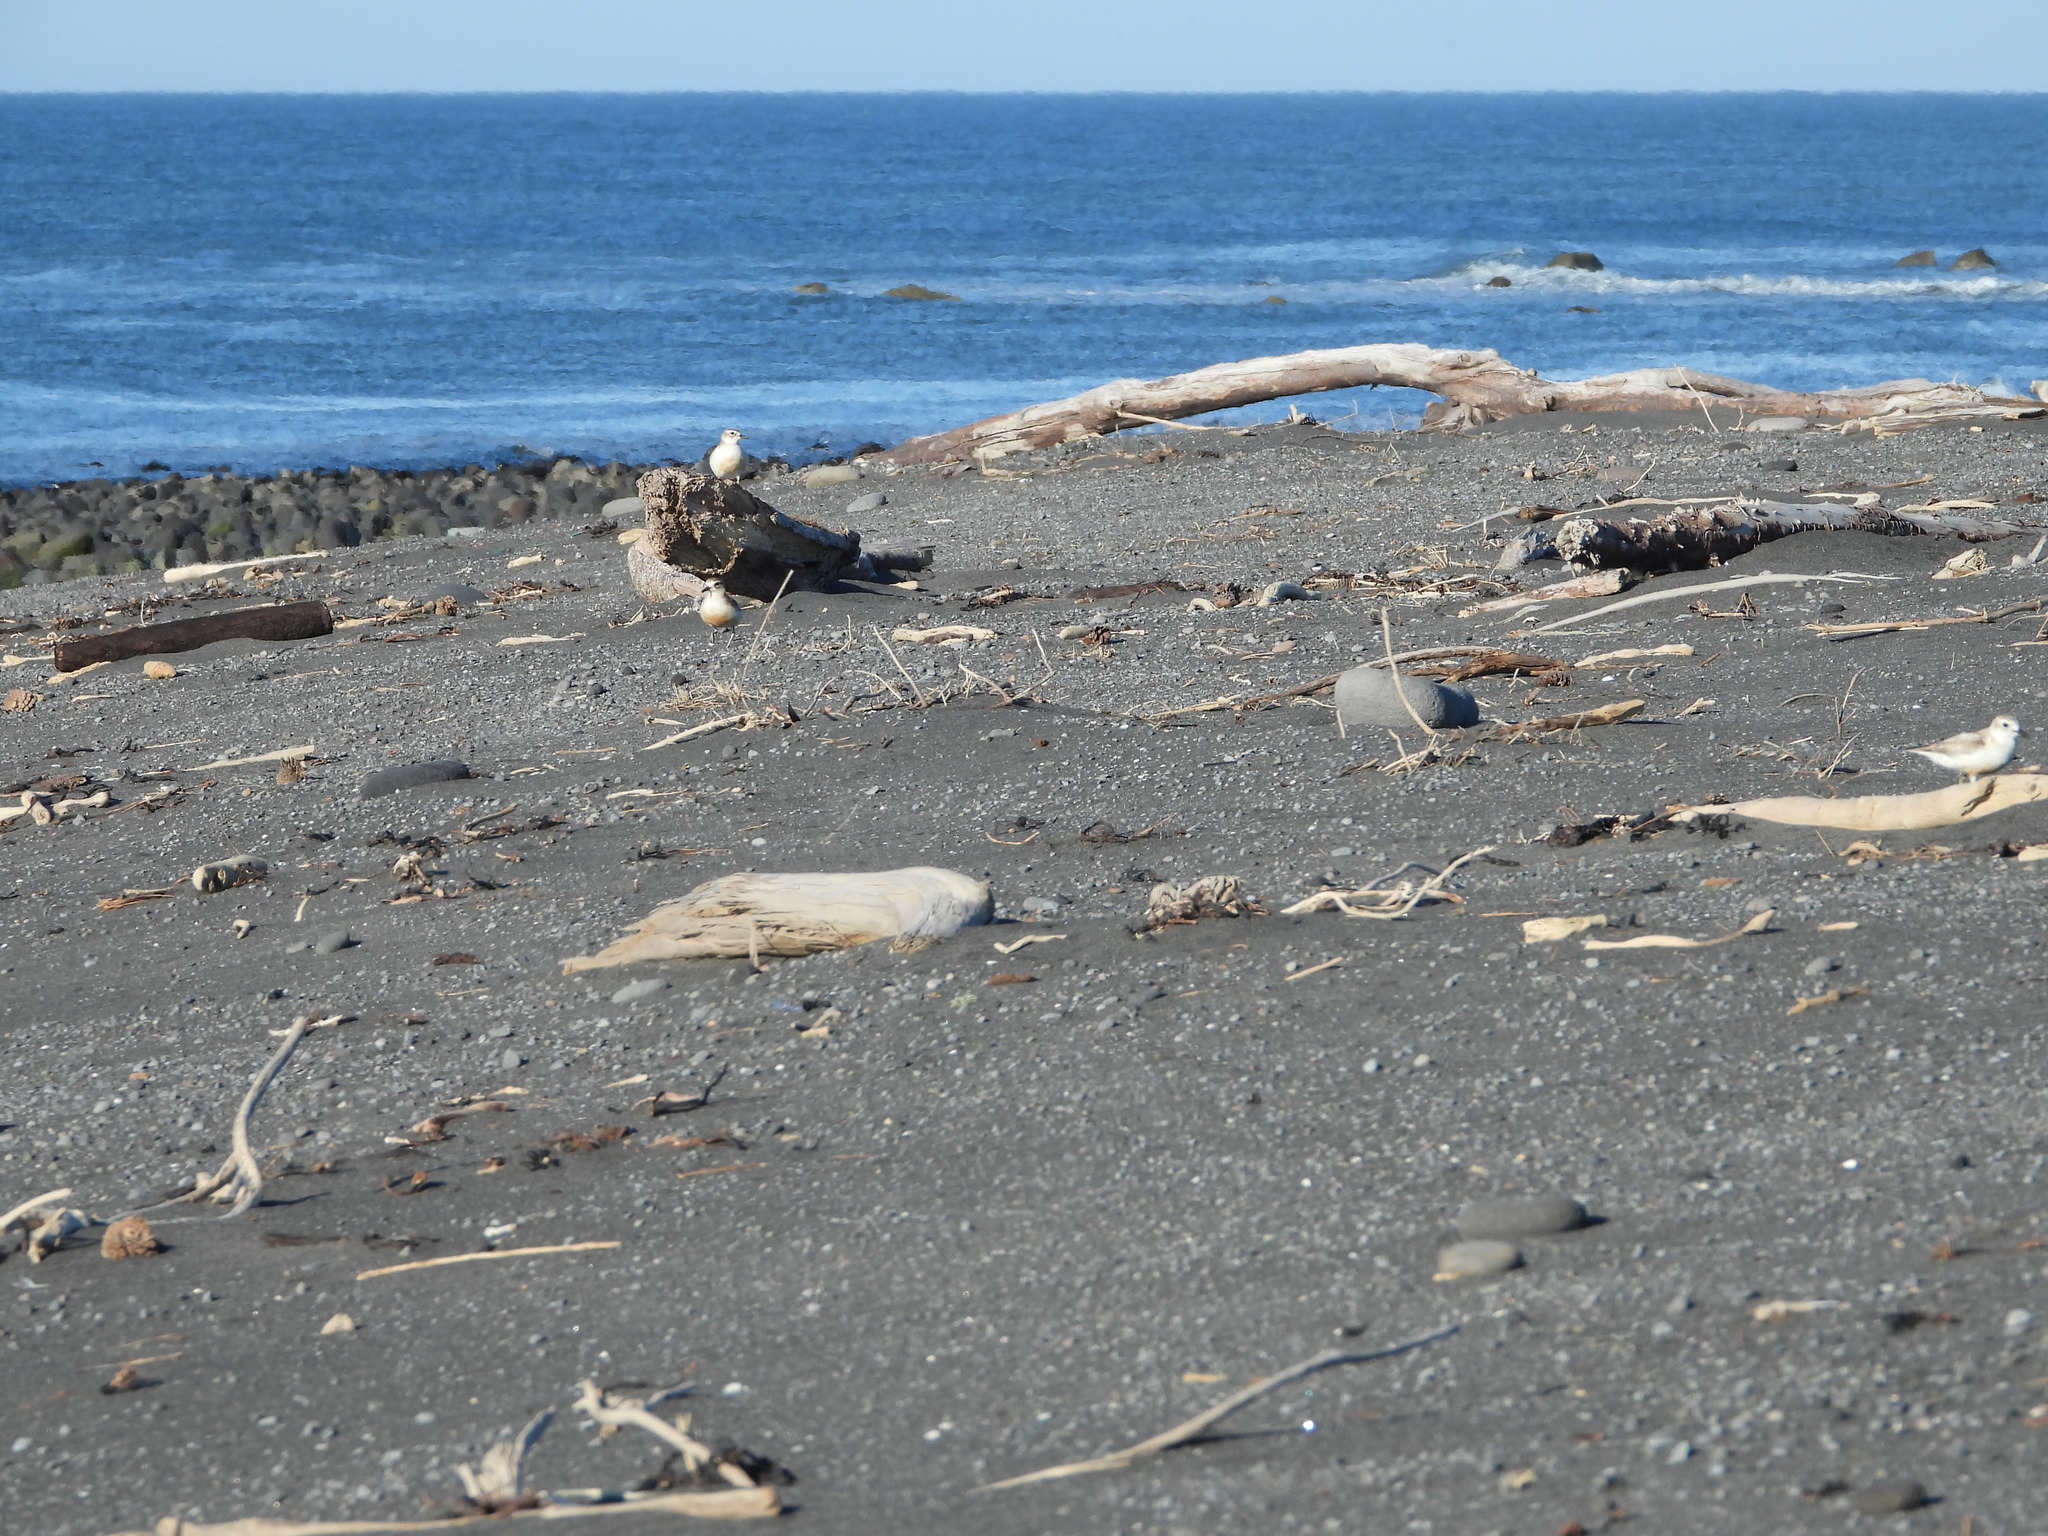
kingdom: Animalia
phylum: Chordata
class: Aves
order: Charadriiformes
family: Charadriidae
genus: Anarhynchus
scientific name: Anarhynchus
